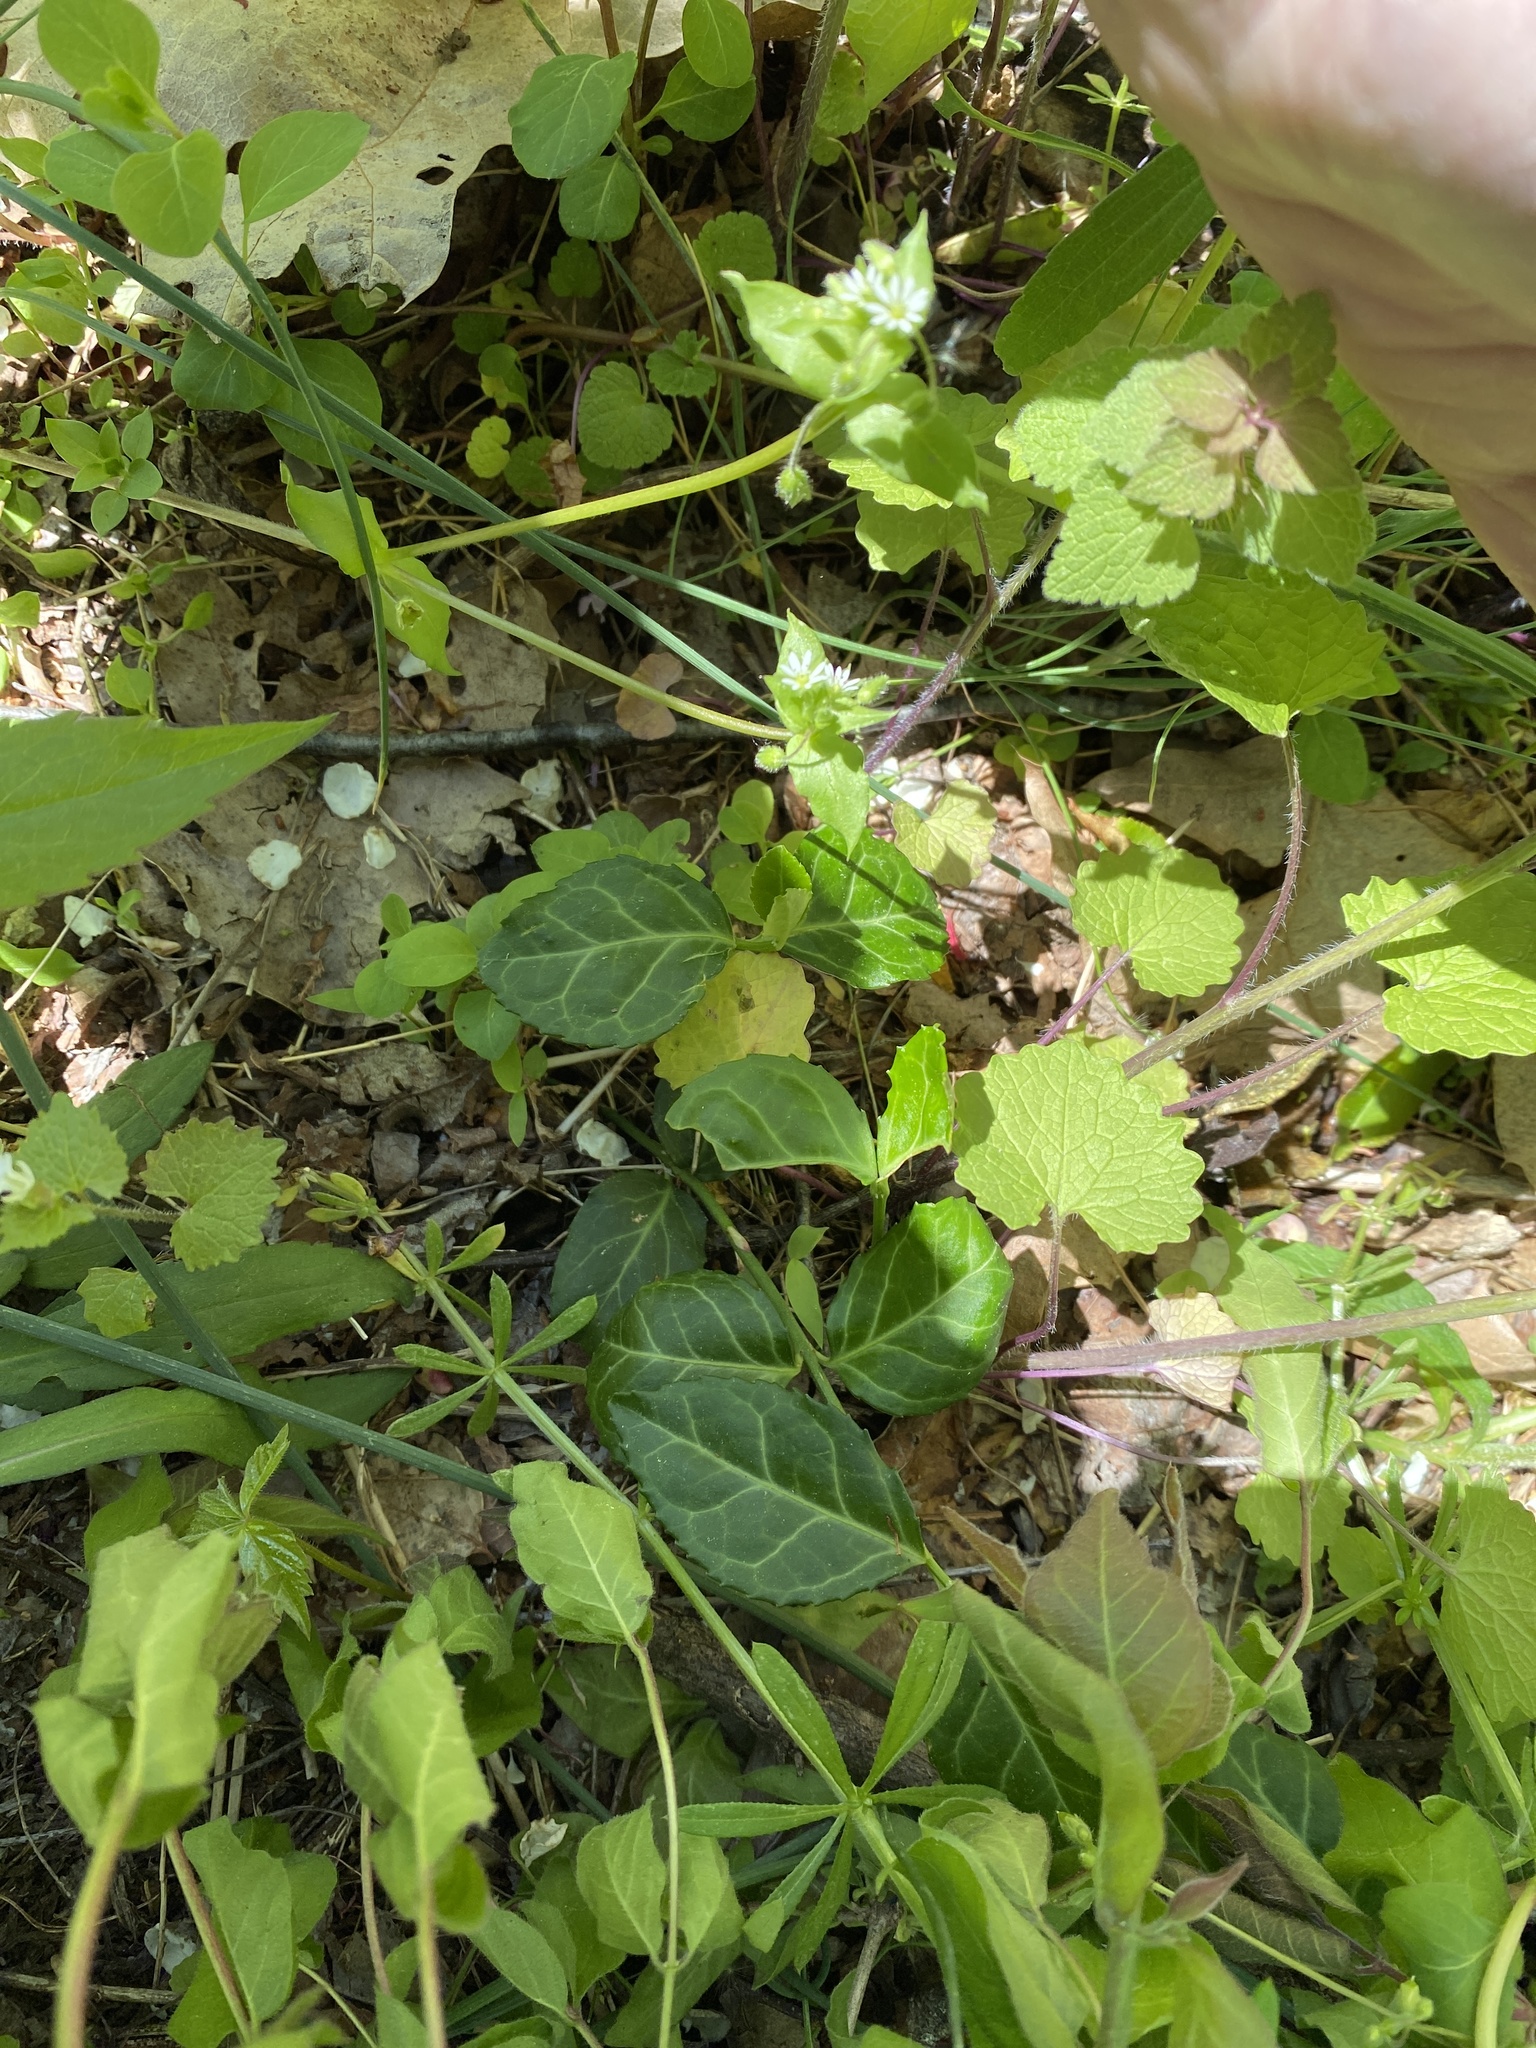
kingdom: Plantae
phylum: Tracheophyta
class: Magnoliopsida
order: Celastrales
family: Celastraceae
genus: Euonymus
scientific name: Euonymus fortunei
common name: Climbing euonymus
